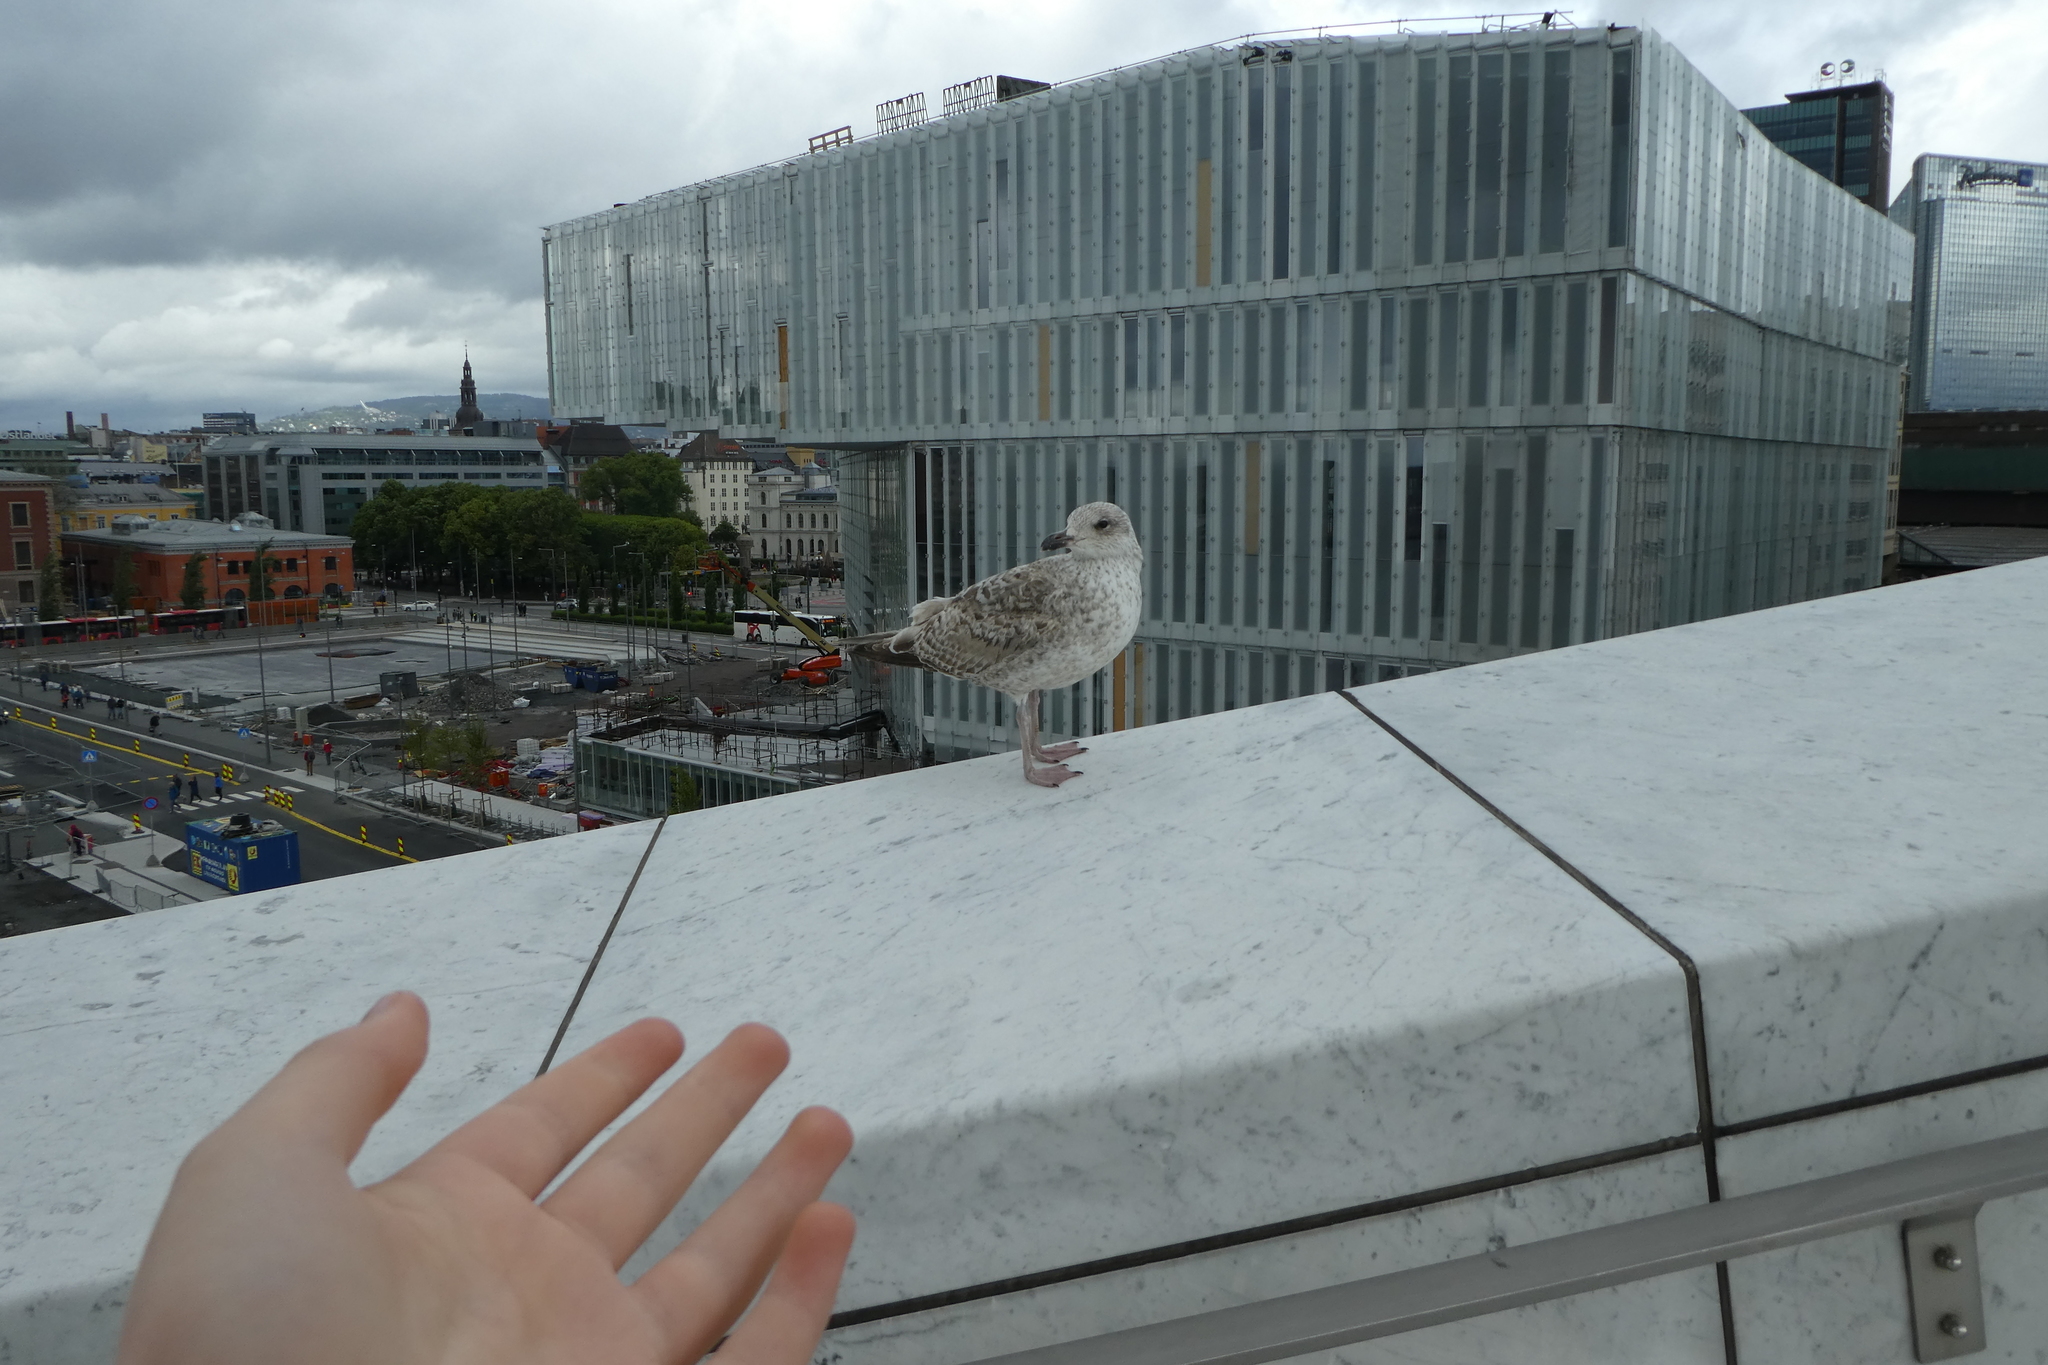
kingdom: Animalia
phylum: Chordata
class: Aves
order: Charadriiformes
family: Laridae
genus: Larus
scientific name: Larus argentatus
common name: Herring gull
